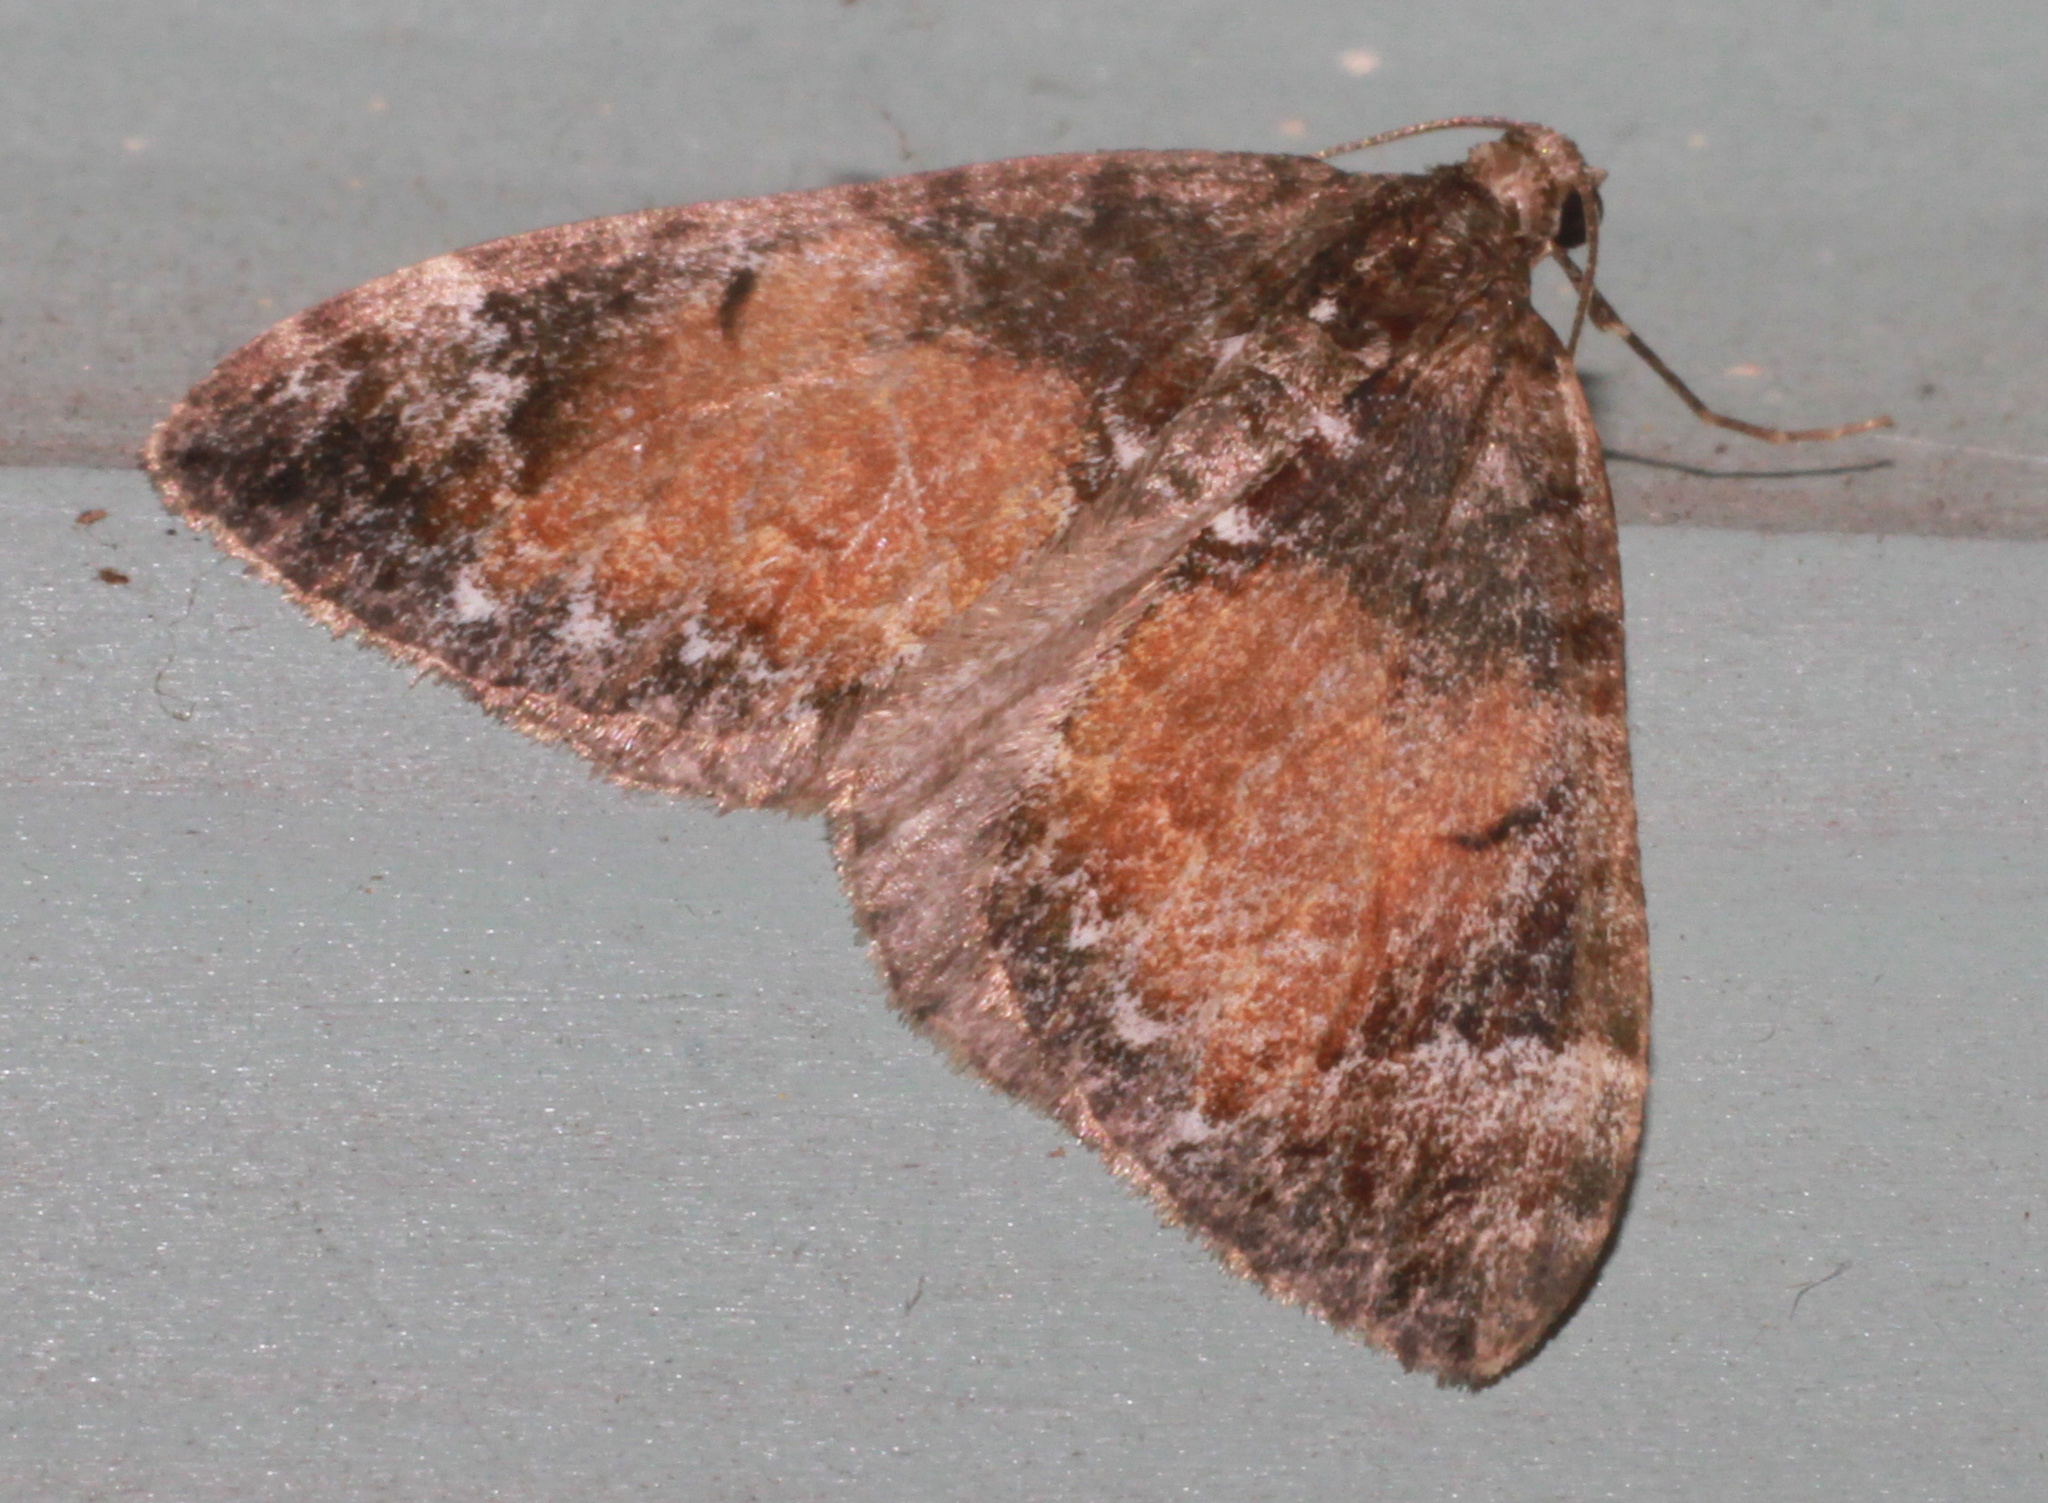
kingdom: Animalia
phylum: Arthropoda
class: Insecta
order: Lepidoptera
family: Geometridae
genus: Dysstroma
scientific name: Dysstroma truncata
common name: Common marbled carpet
